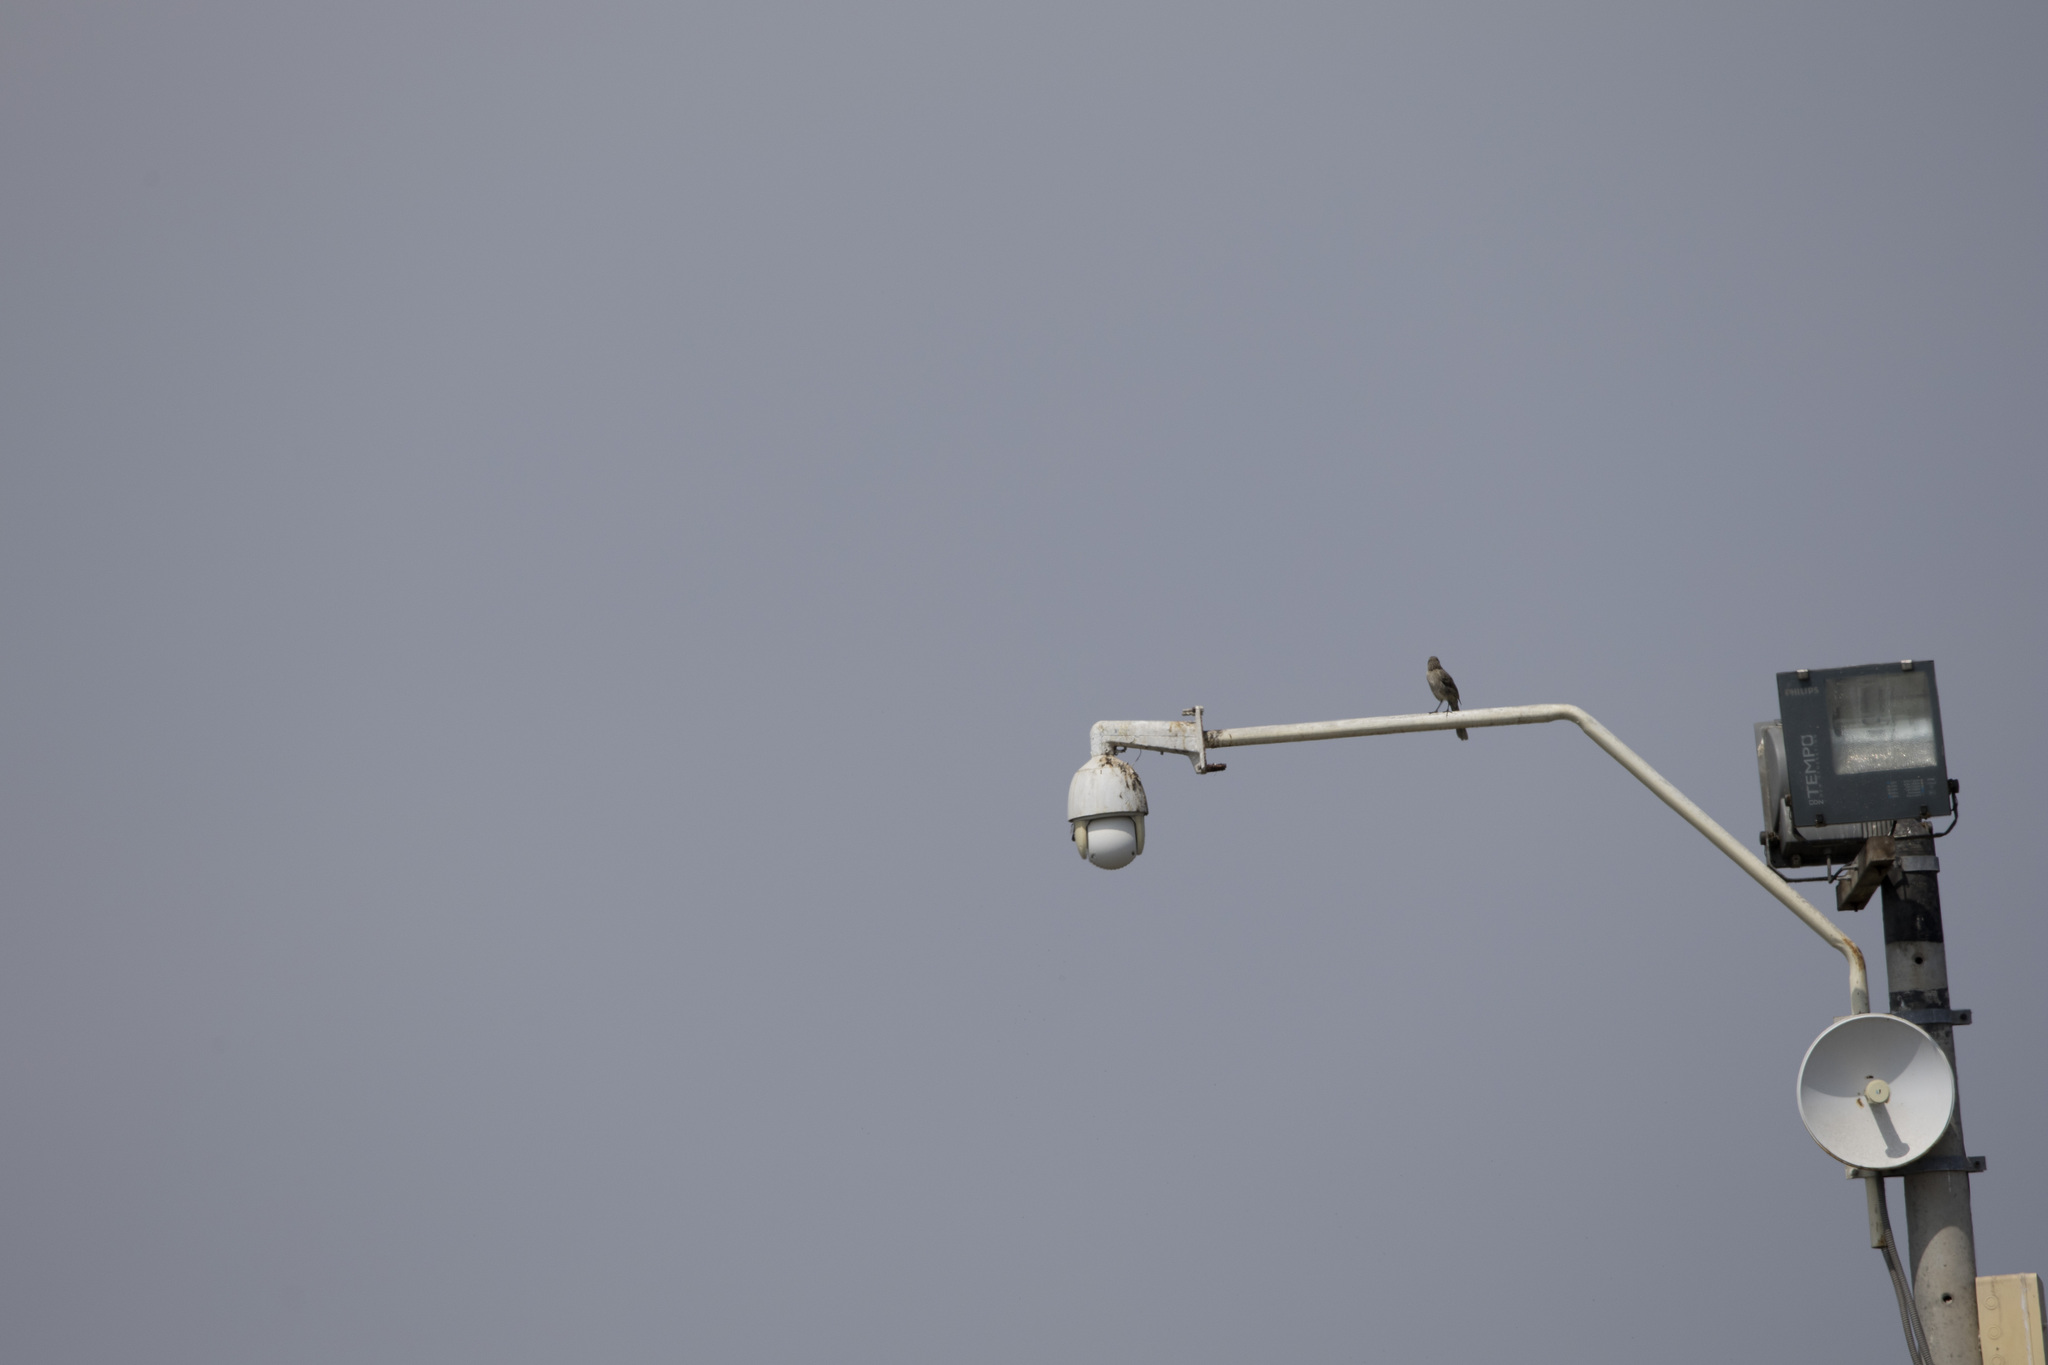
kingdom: Animalia
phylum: Chordata
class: Aves
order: Passeriformes
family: Mimidae
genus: Mimus
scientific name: Mimus longicaudatus
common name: Long-tailed mockingbird
